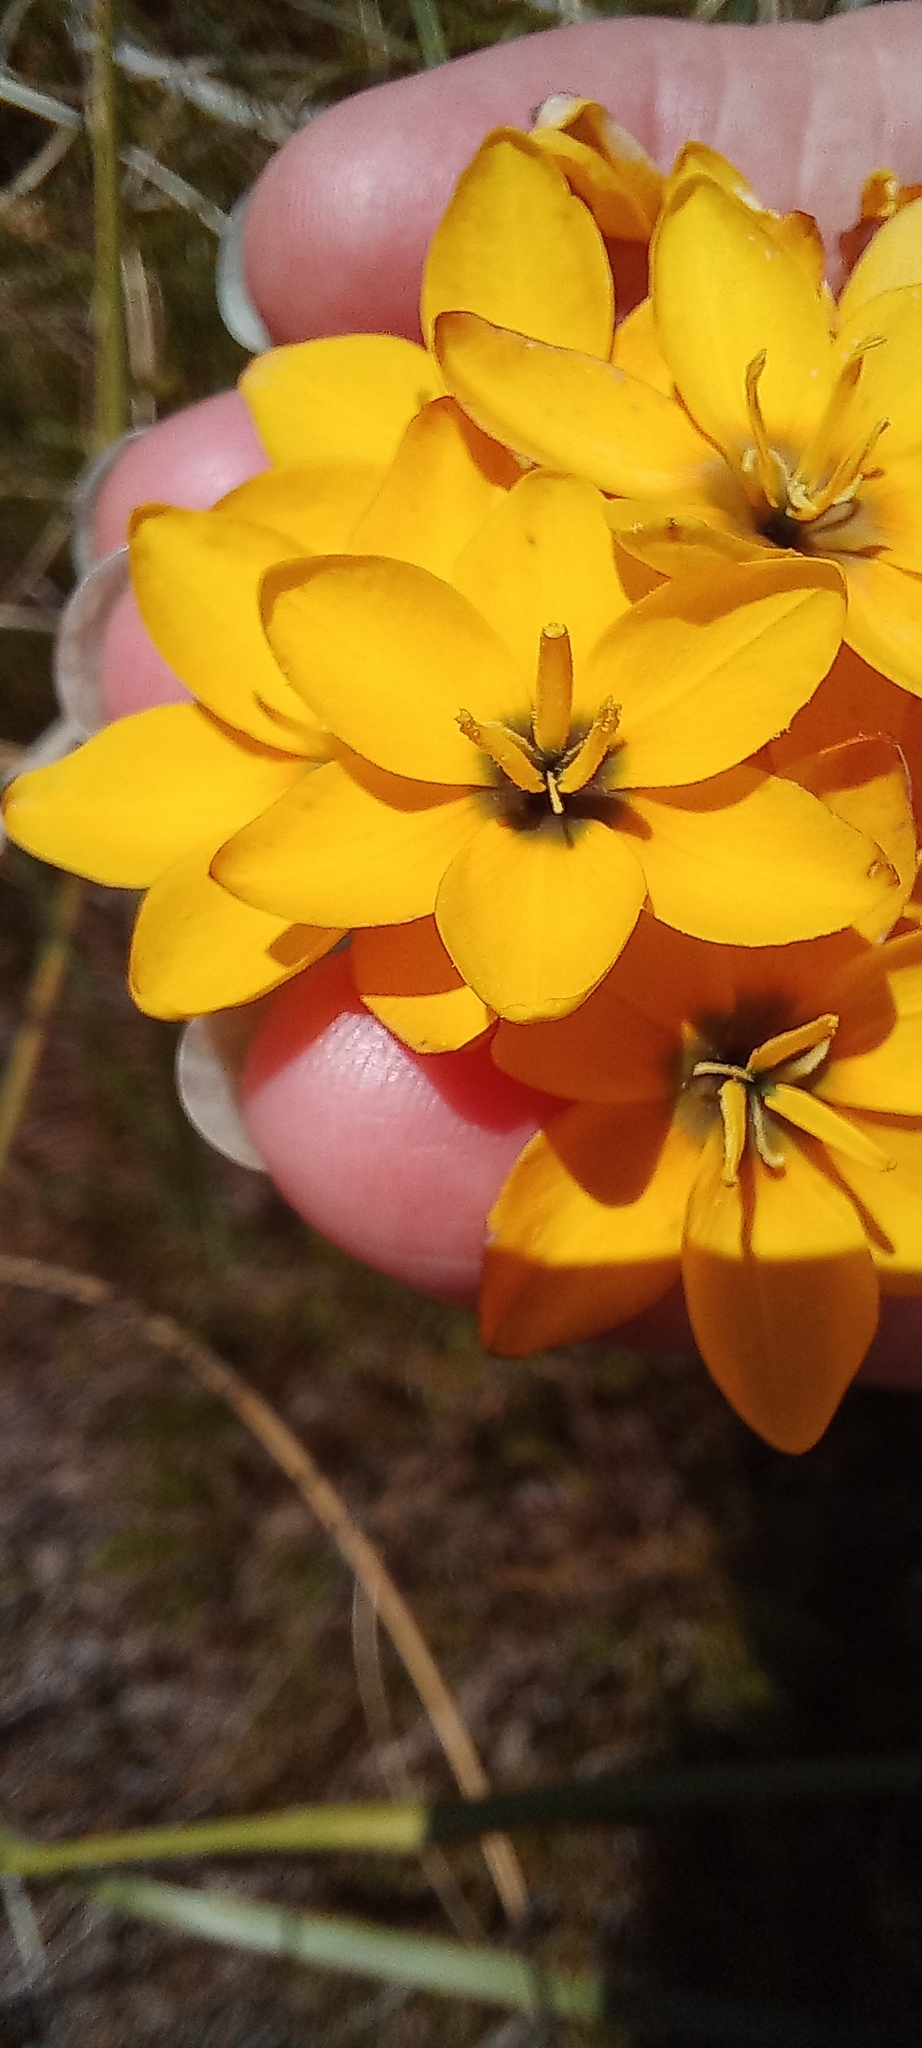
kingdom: Plantae
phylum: Tracheophyta
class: Liliopsida
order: Asparagales
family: Iridaceae
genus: Ixia
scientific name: Ixia sarmentosa
